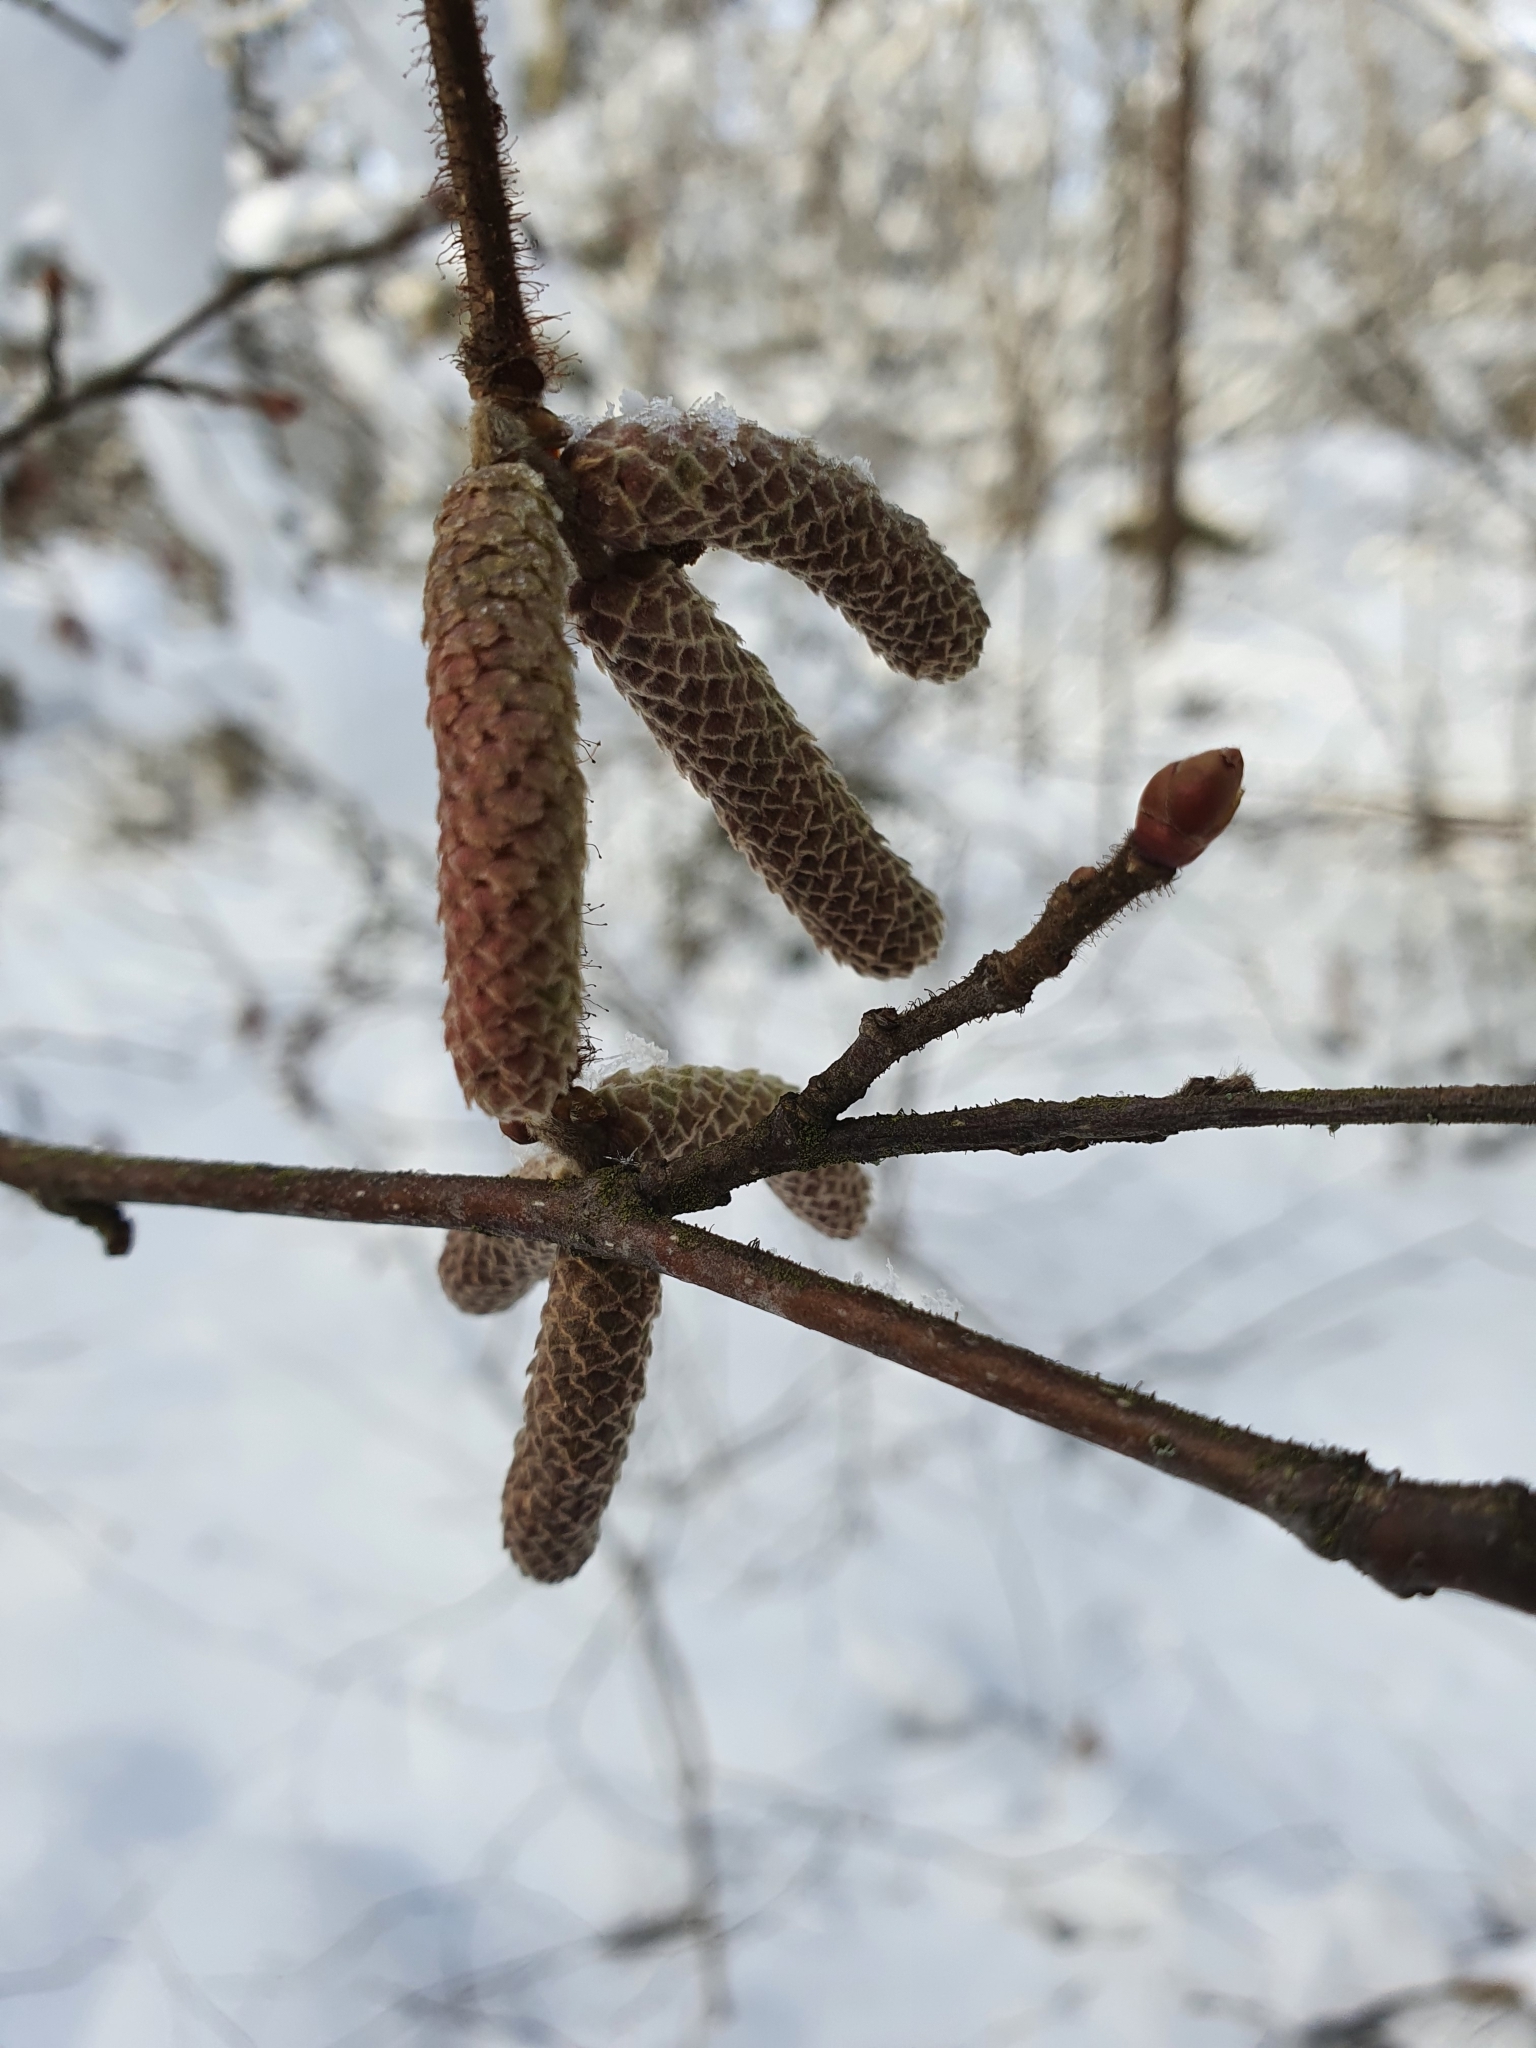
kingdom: Plantae
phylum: Tracheophyta
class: Magnoliopsida
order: Fagales
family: Betulaceae
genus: Corylus
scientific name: Corylus avellana
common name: European hazel
